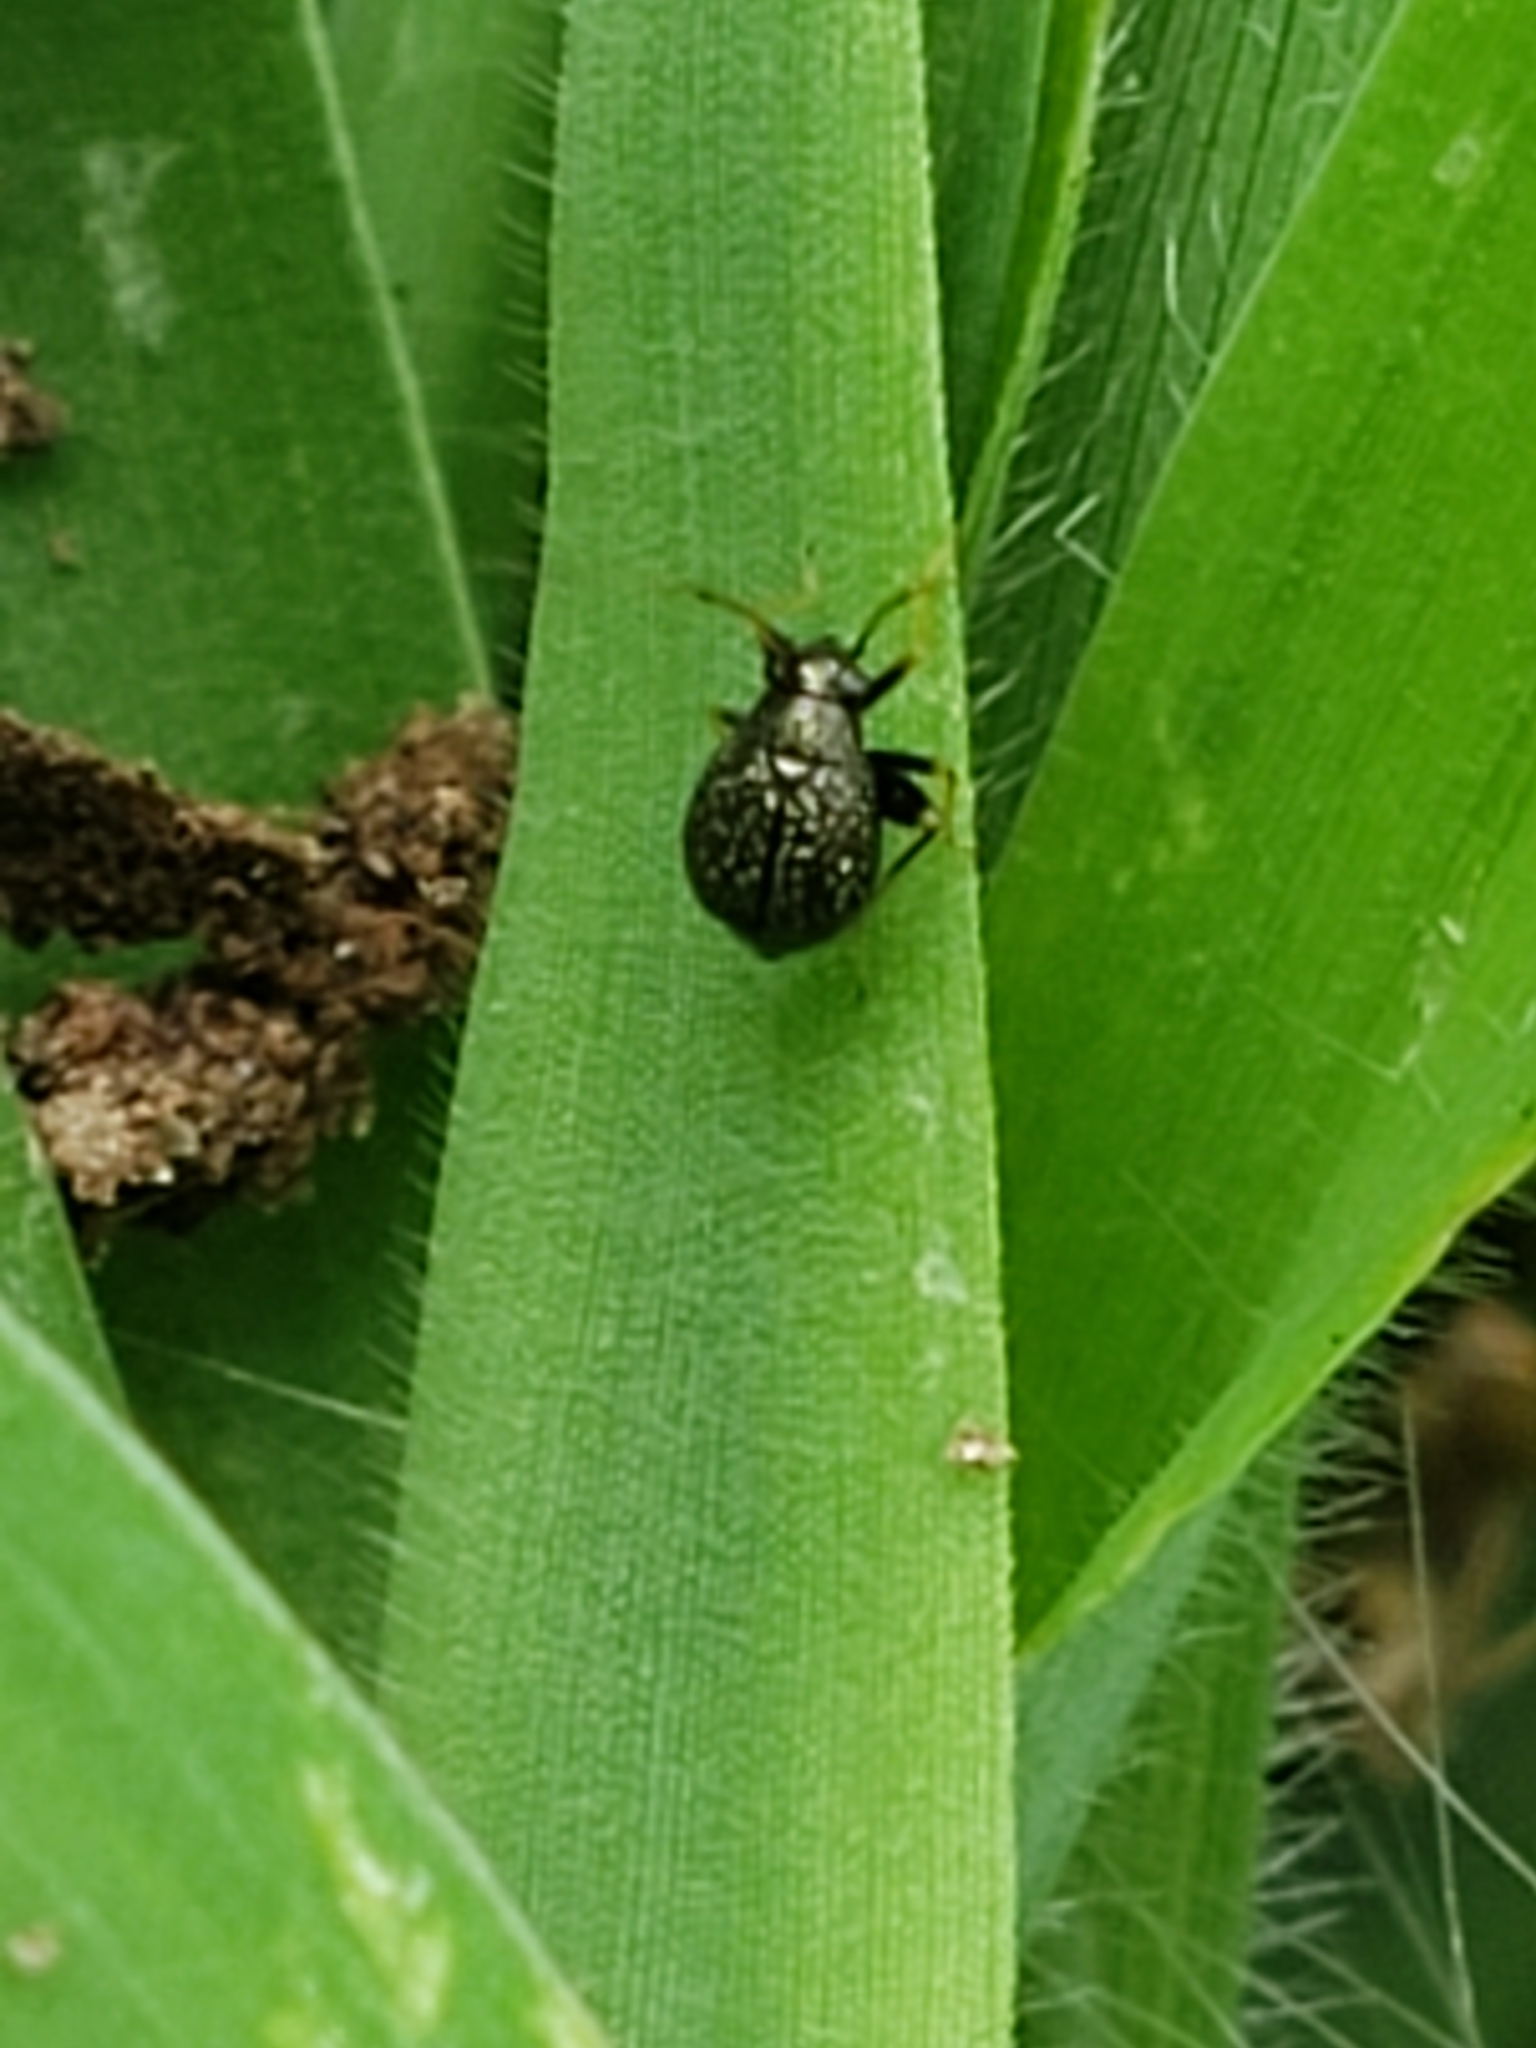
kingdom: Animalia
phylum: Arthropoda
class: Insecta
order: Hemiptera
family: Miridae
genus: Microtechnites
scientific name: Microtechnites bractatus
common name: Garden fleahopper
